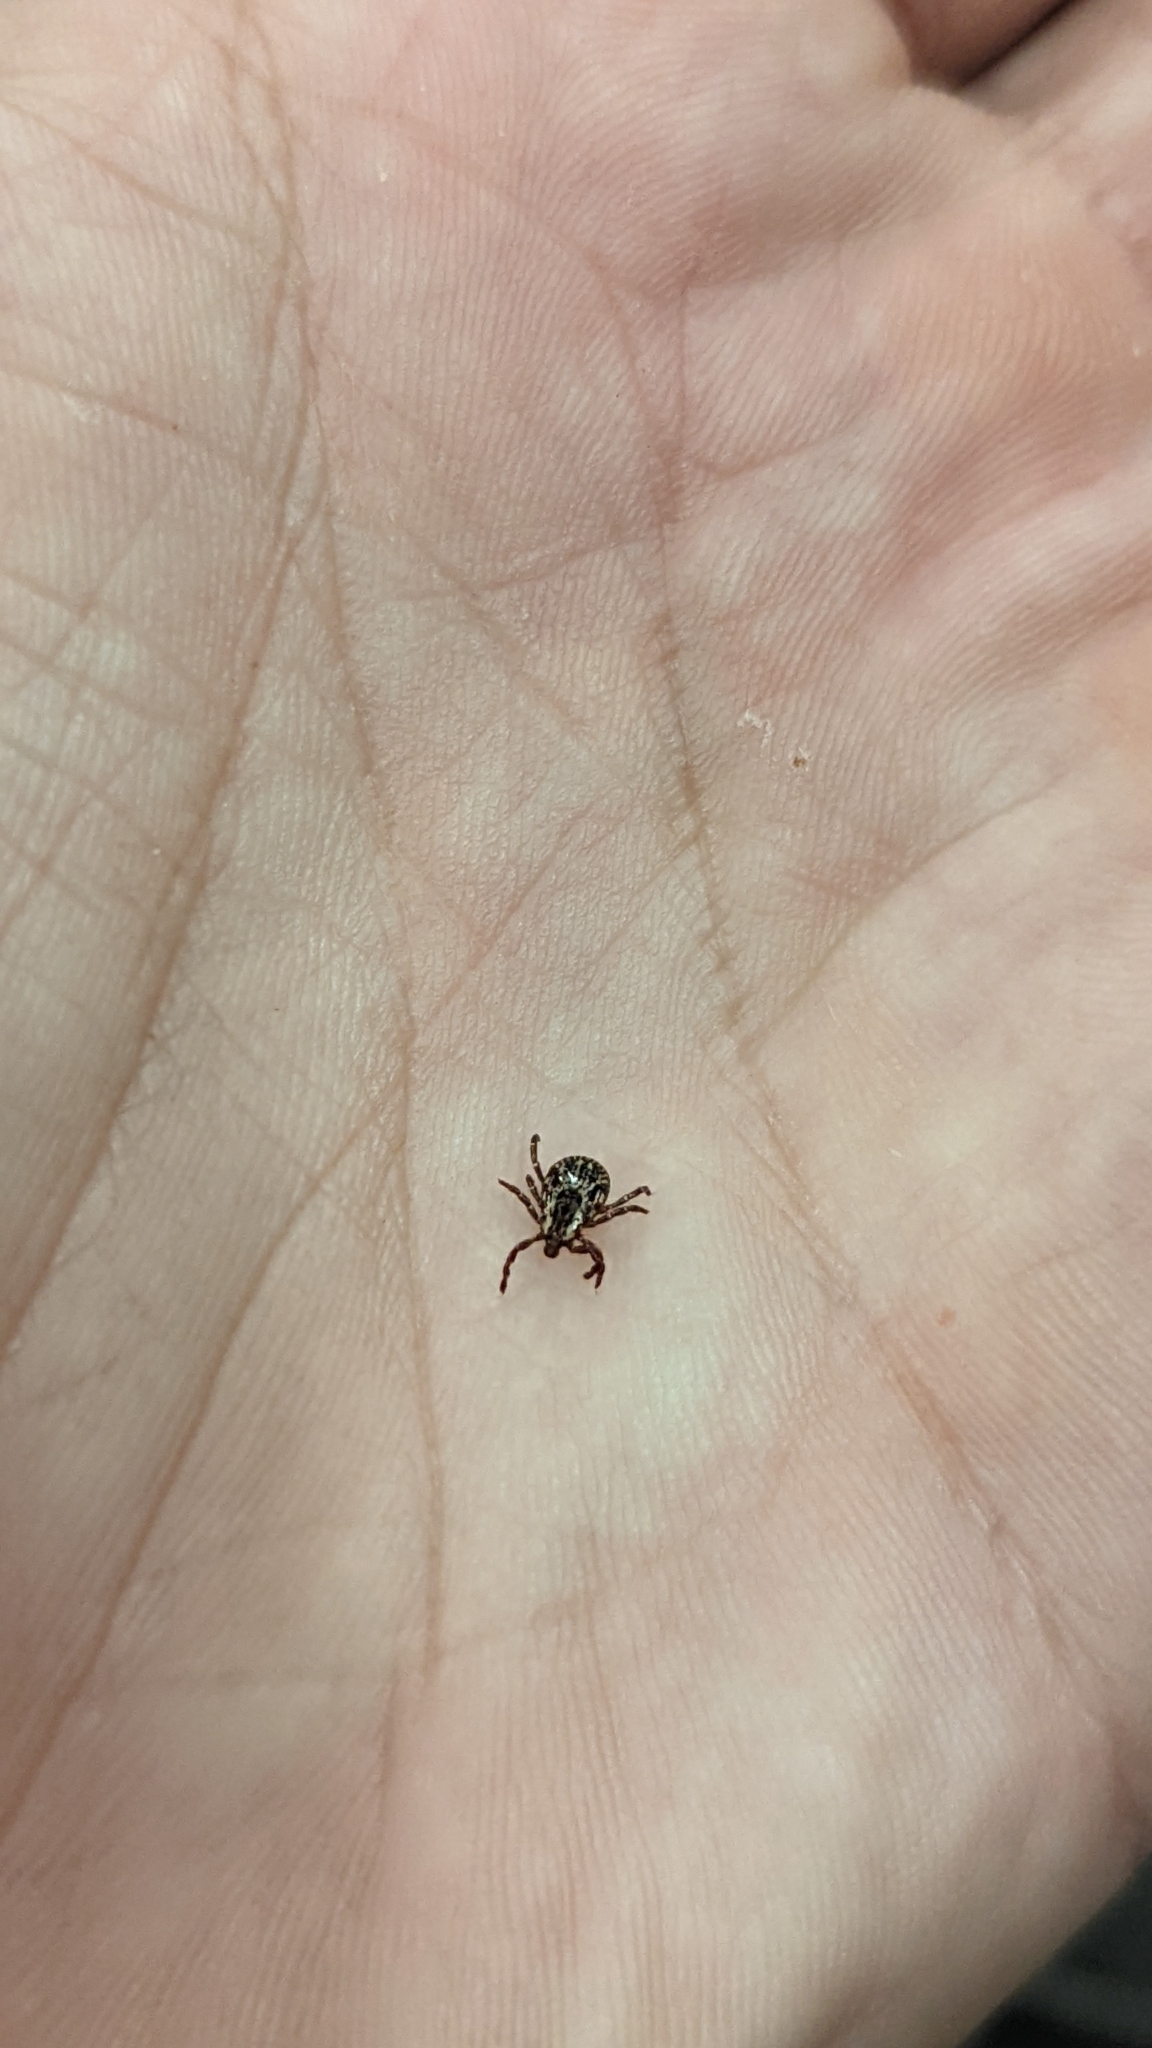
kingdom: Animalia
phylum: Arthropoda
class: Arachnida
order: Ixodida
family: Ixodidae
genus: Dermacentor
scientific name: Dermacentor variabilis
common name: American dog tick
